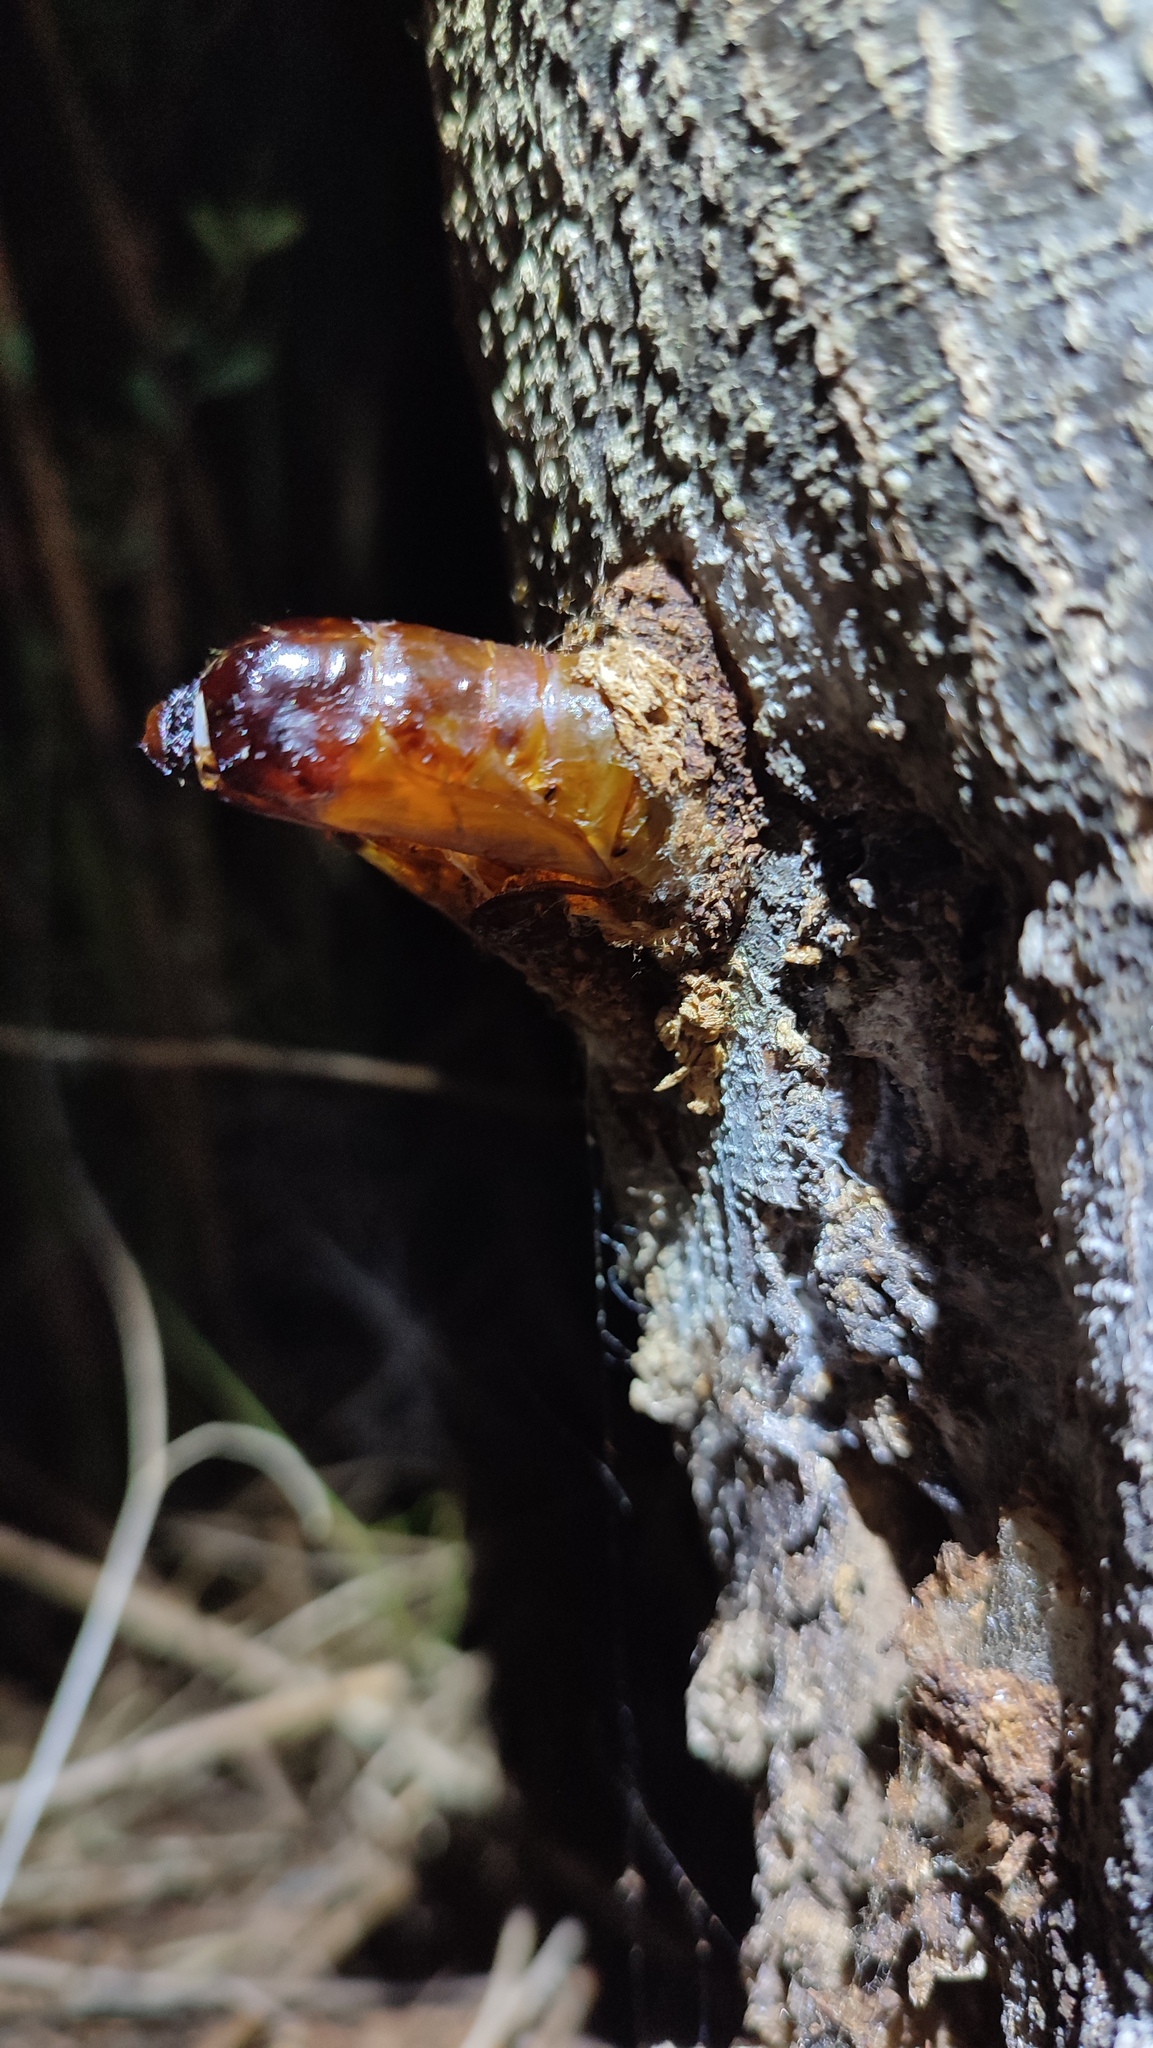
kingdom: Animalia
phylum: Arthropoda
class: Insecta
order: Lepidoptera
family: Hepialidae
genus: Leto
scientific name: Leto venus
